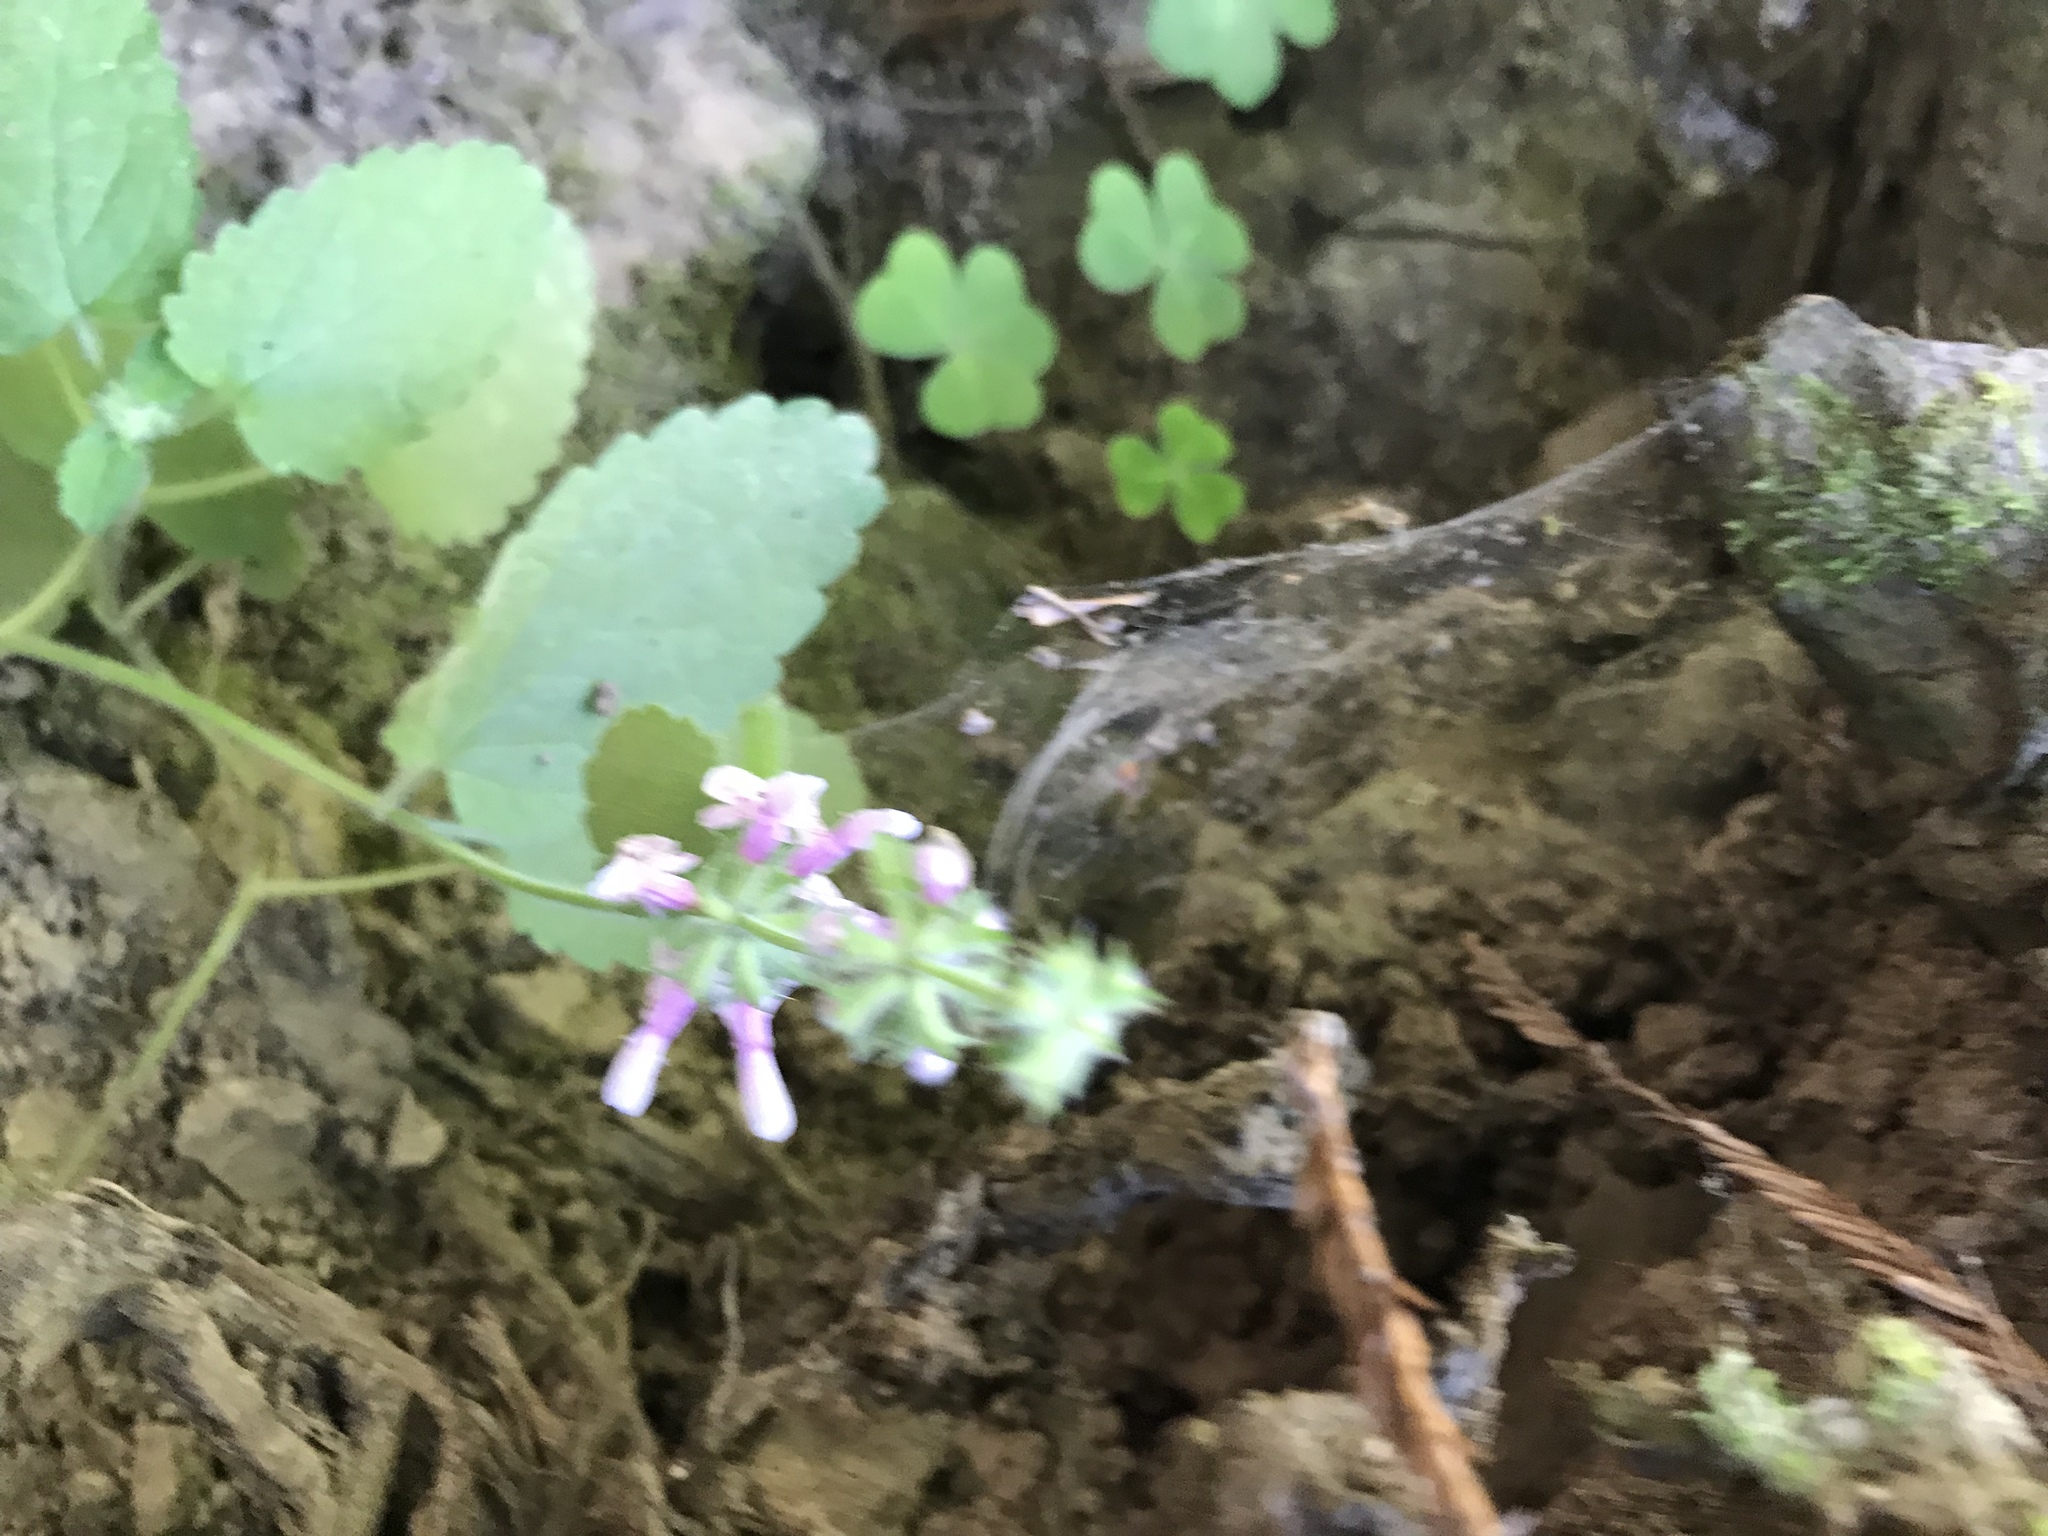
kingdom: Plantae
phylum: Tracheophyta
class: Magnoliopsida
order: Lamiales
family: Lamiaceae
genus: Stachys
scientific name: Stachys
